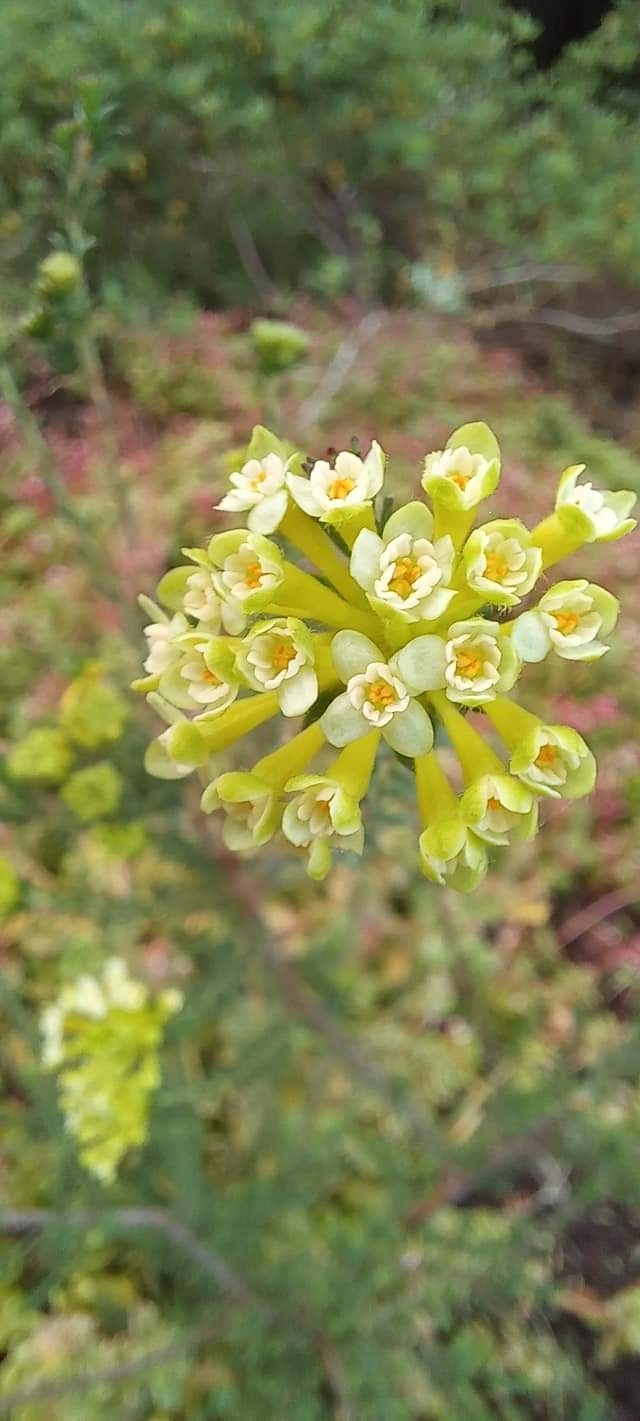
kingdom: Plantae
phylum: Tracheophyta
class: Magnoliopsida
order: Malvales
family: Thymelaeaceae
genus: Gnidia
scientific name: Gnidia squarrosa
